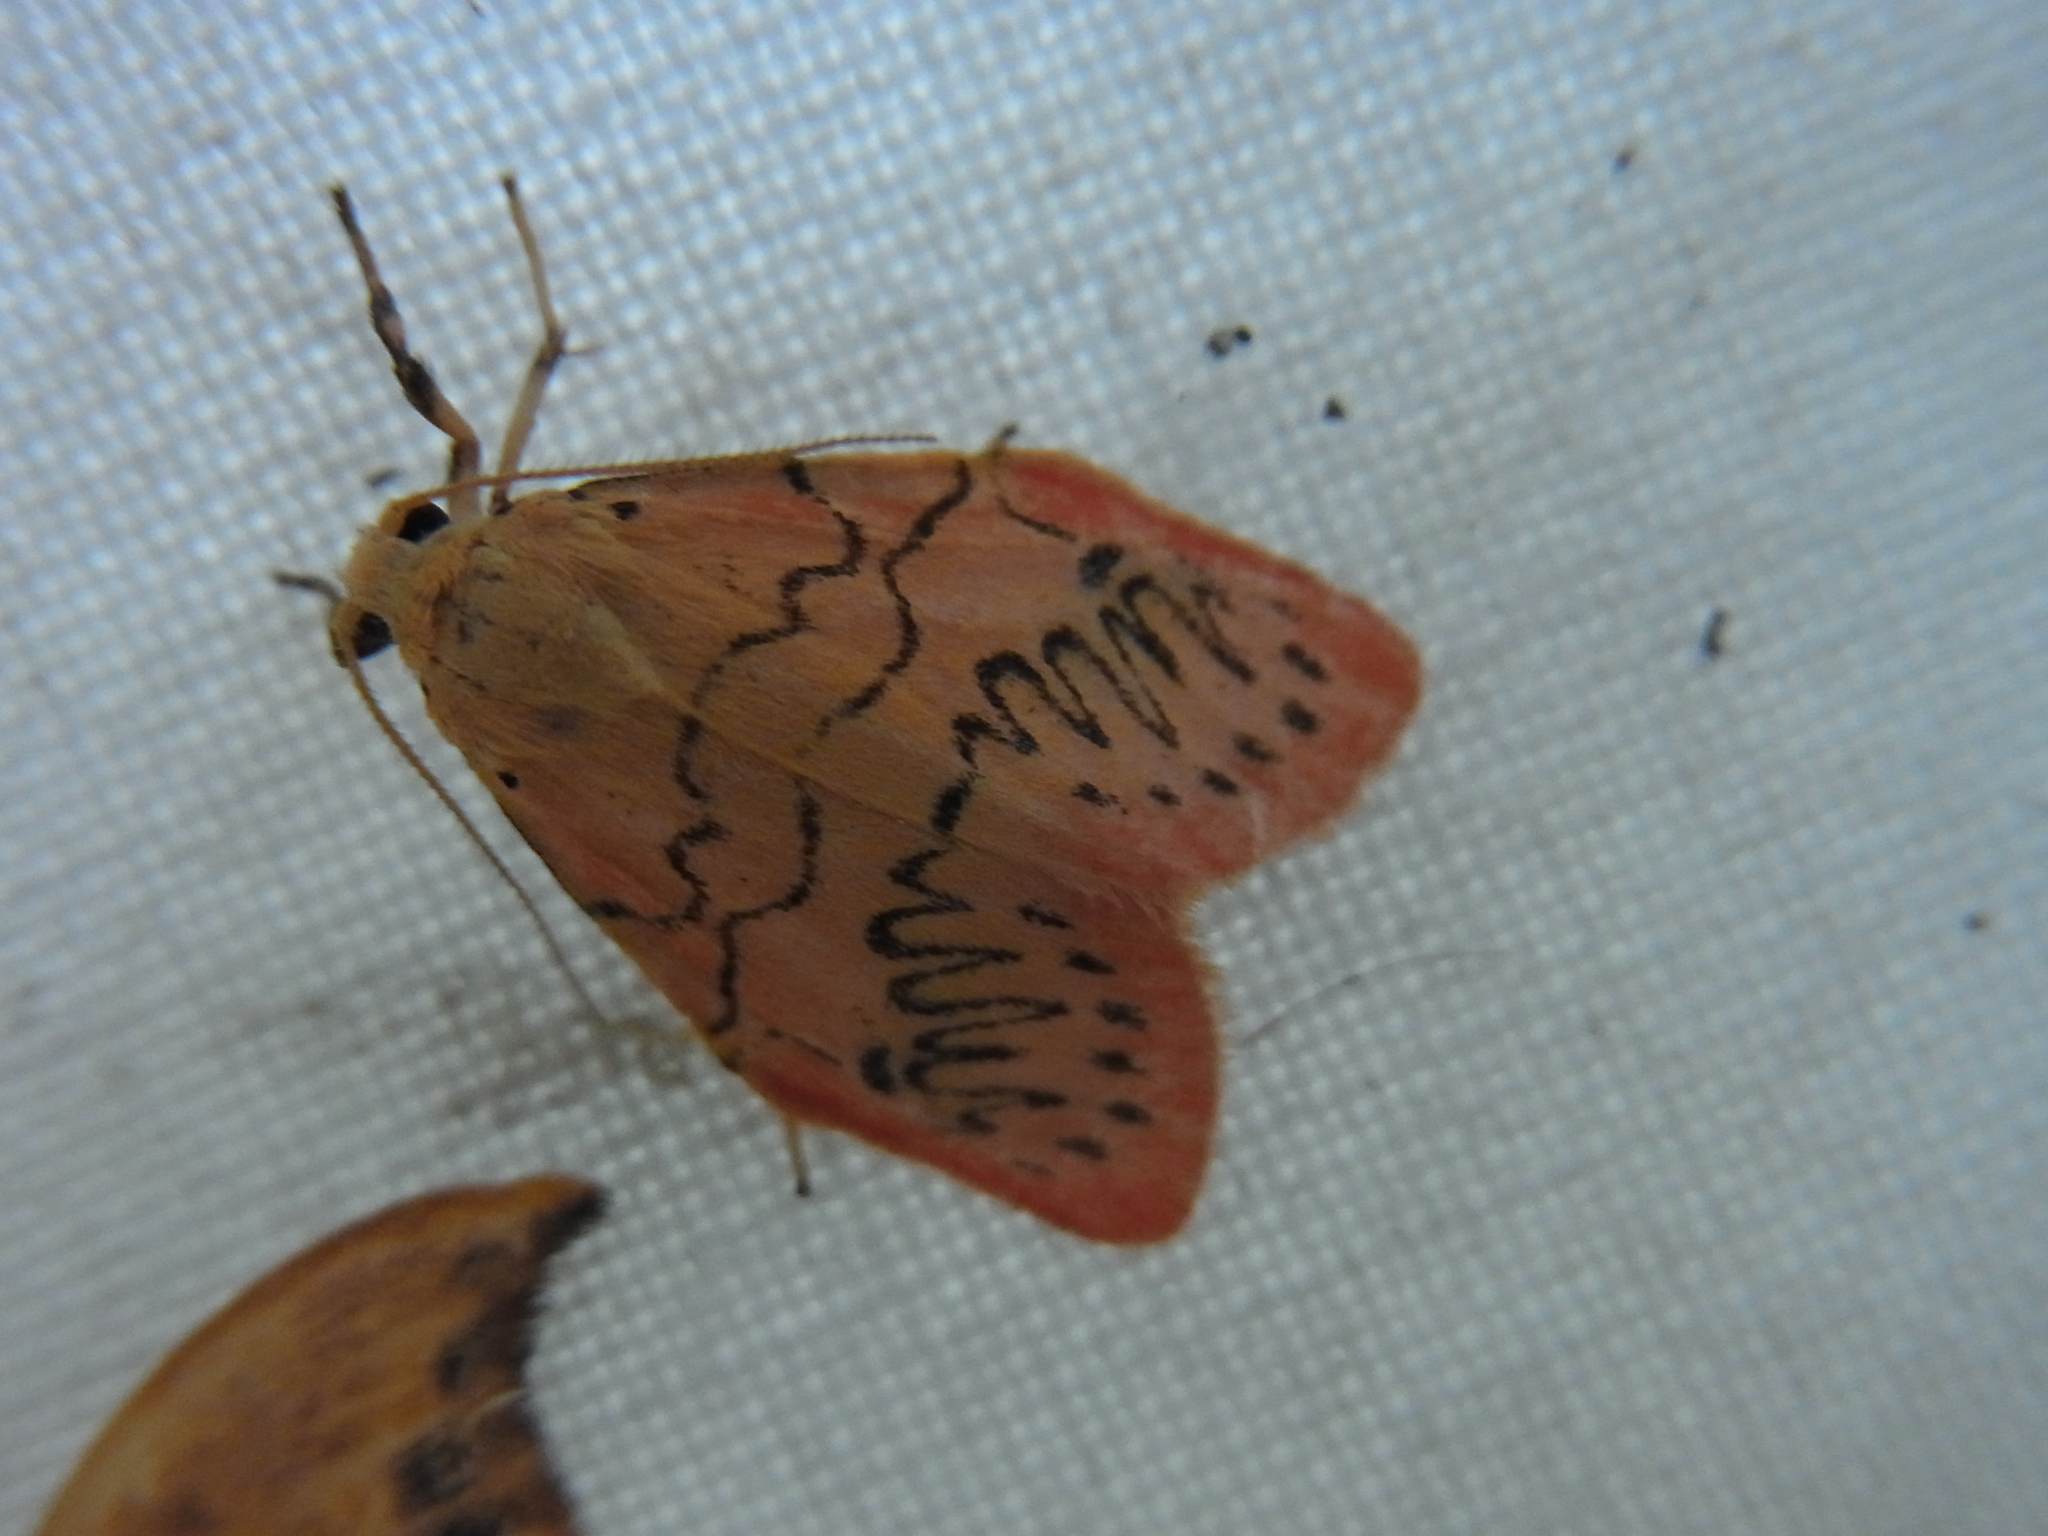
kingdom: Animalia
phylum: Arthropoda
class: Insecta
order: Lepidoptera
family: Erebidae
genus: Miltochrista
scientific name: Miltochrista miniata
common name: Rosy footman
